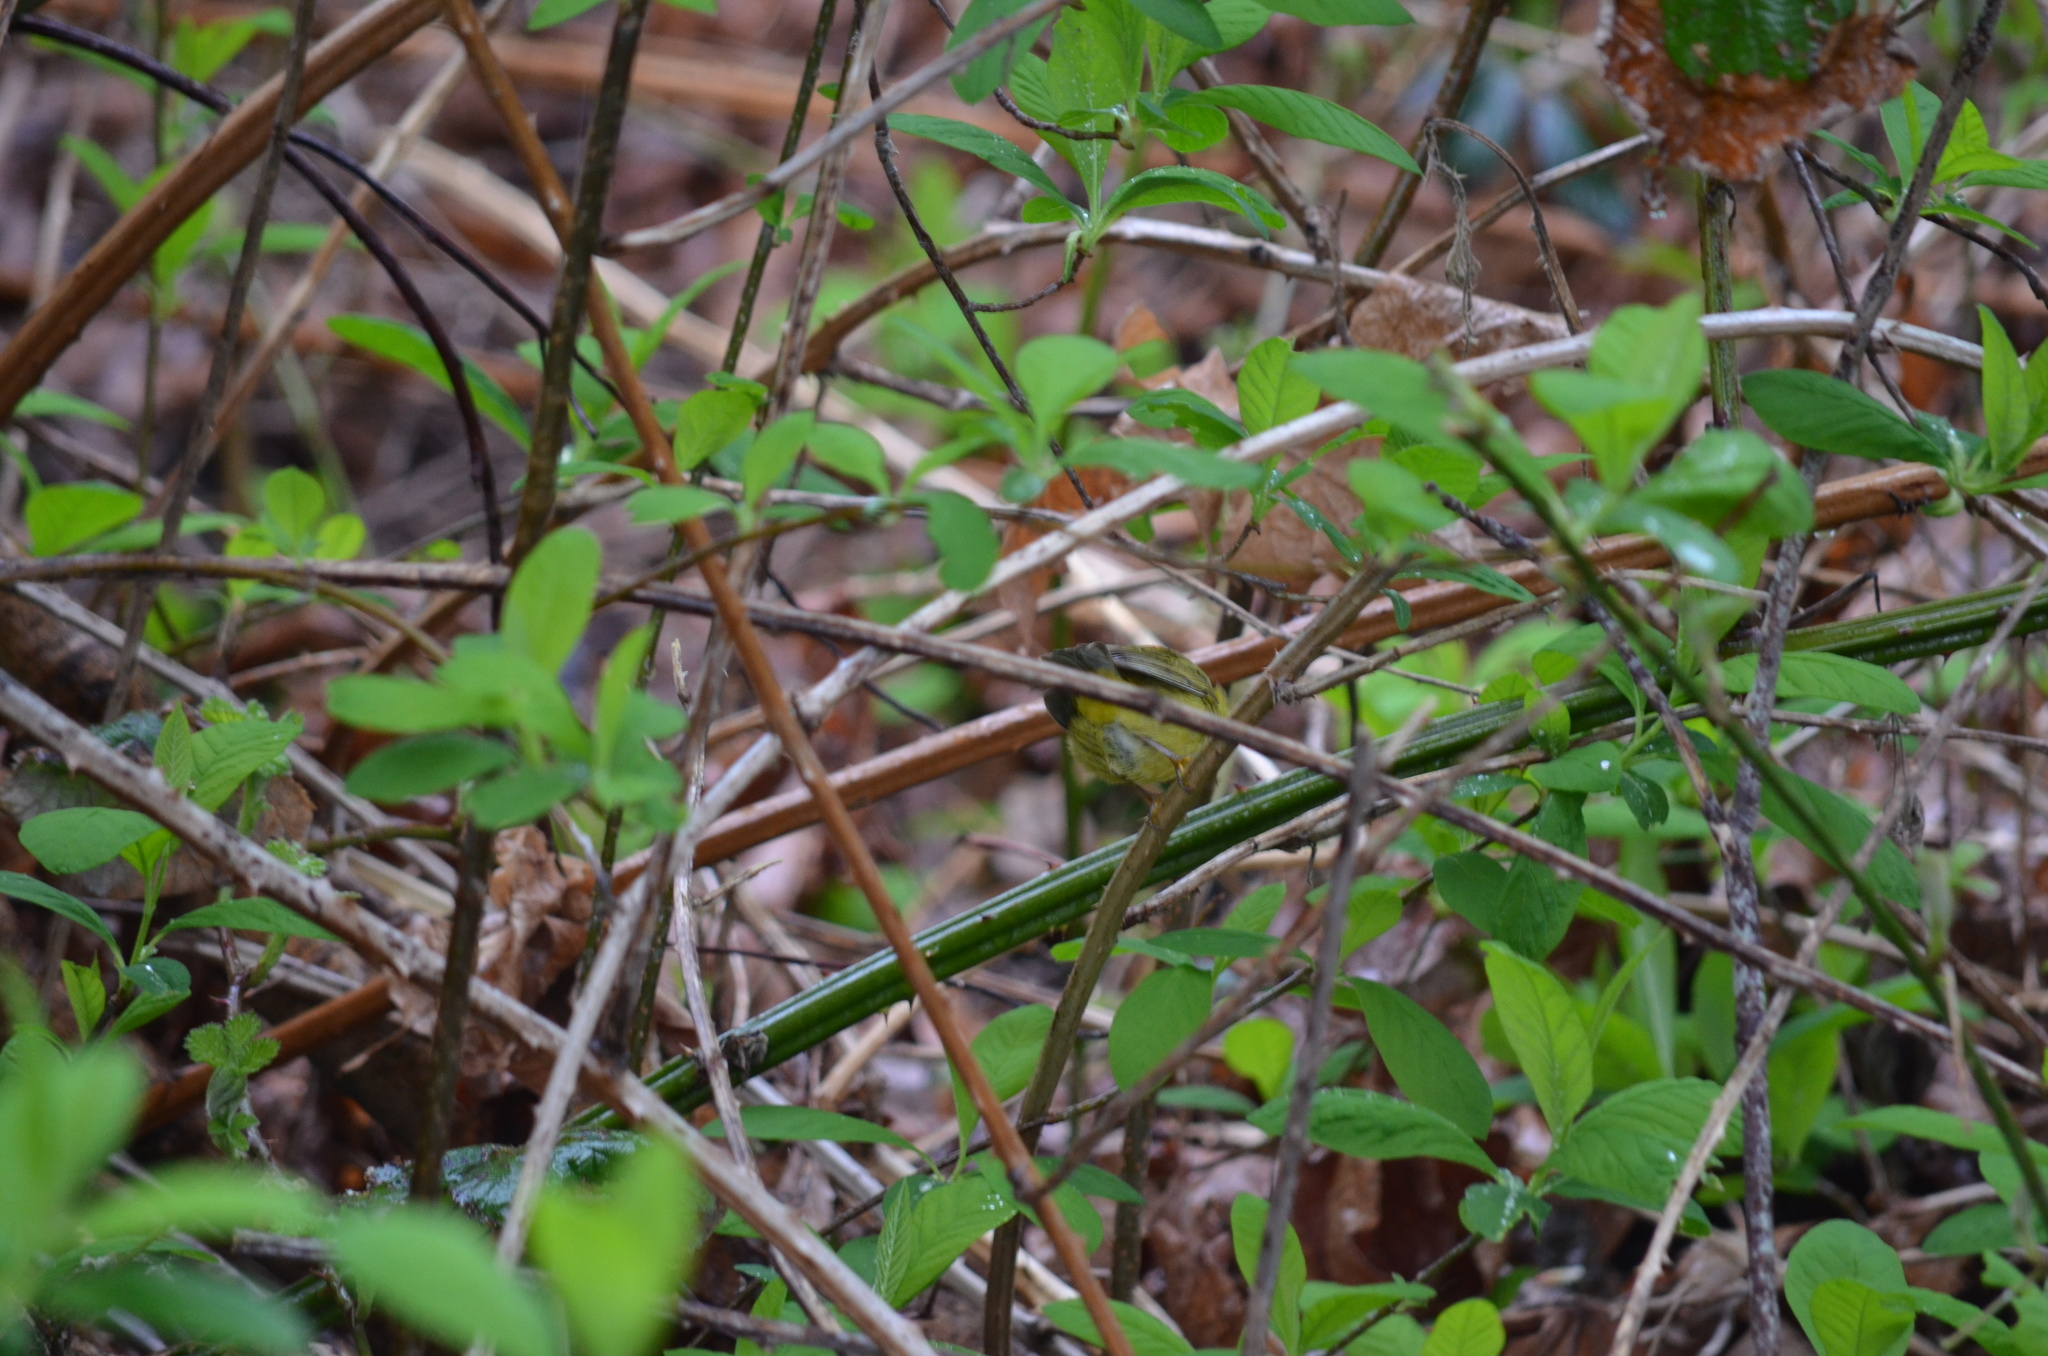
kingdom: Animalia
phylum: Chordata
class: Aves
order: Passeriformes
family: Parulidae
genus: Leiothlypis
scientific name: Leiothlypis celata
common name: Orange-crowned warbler
